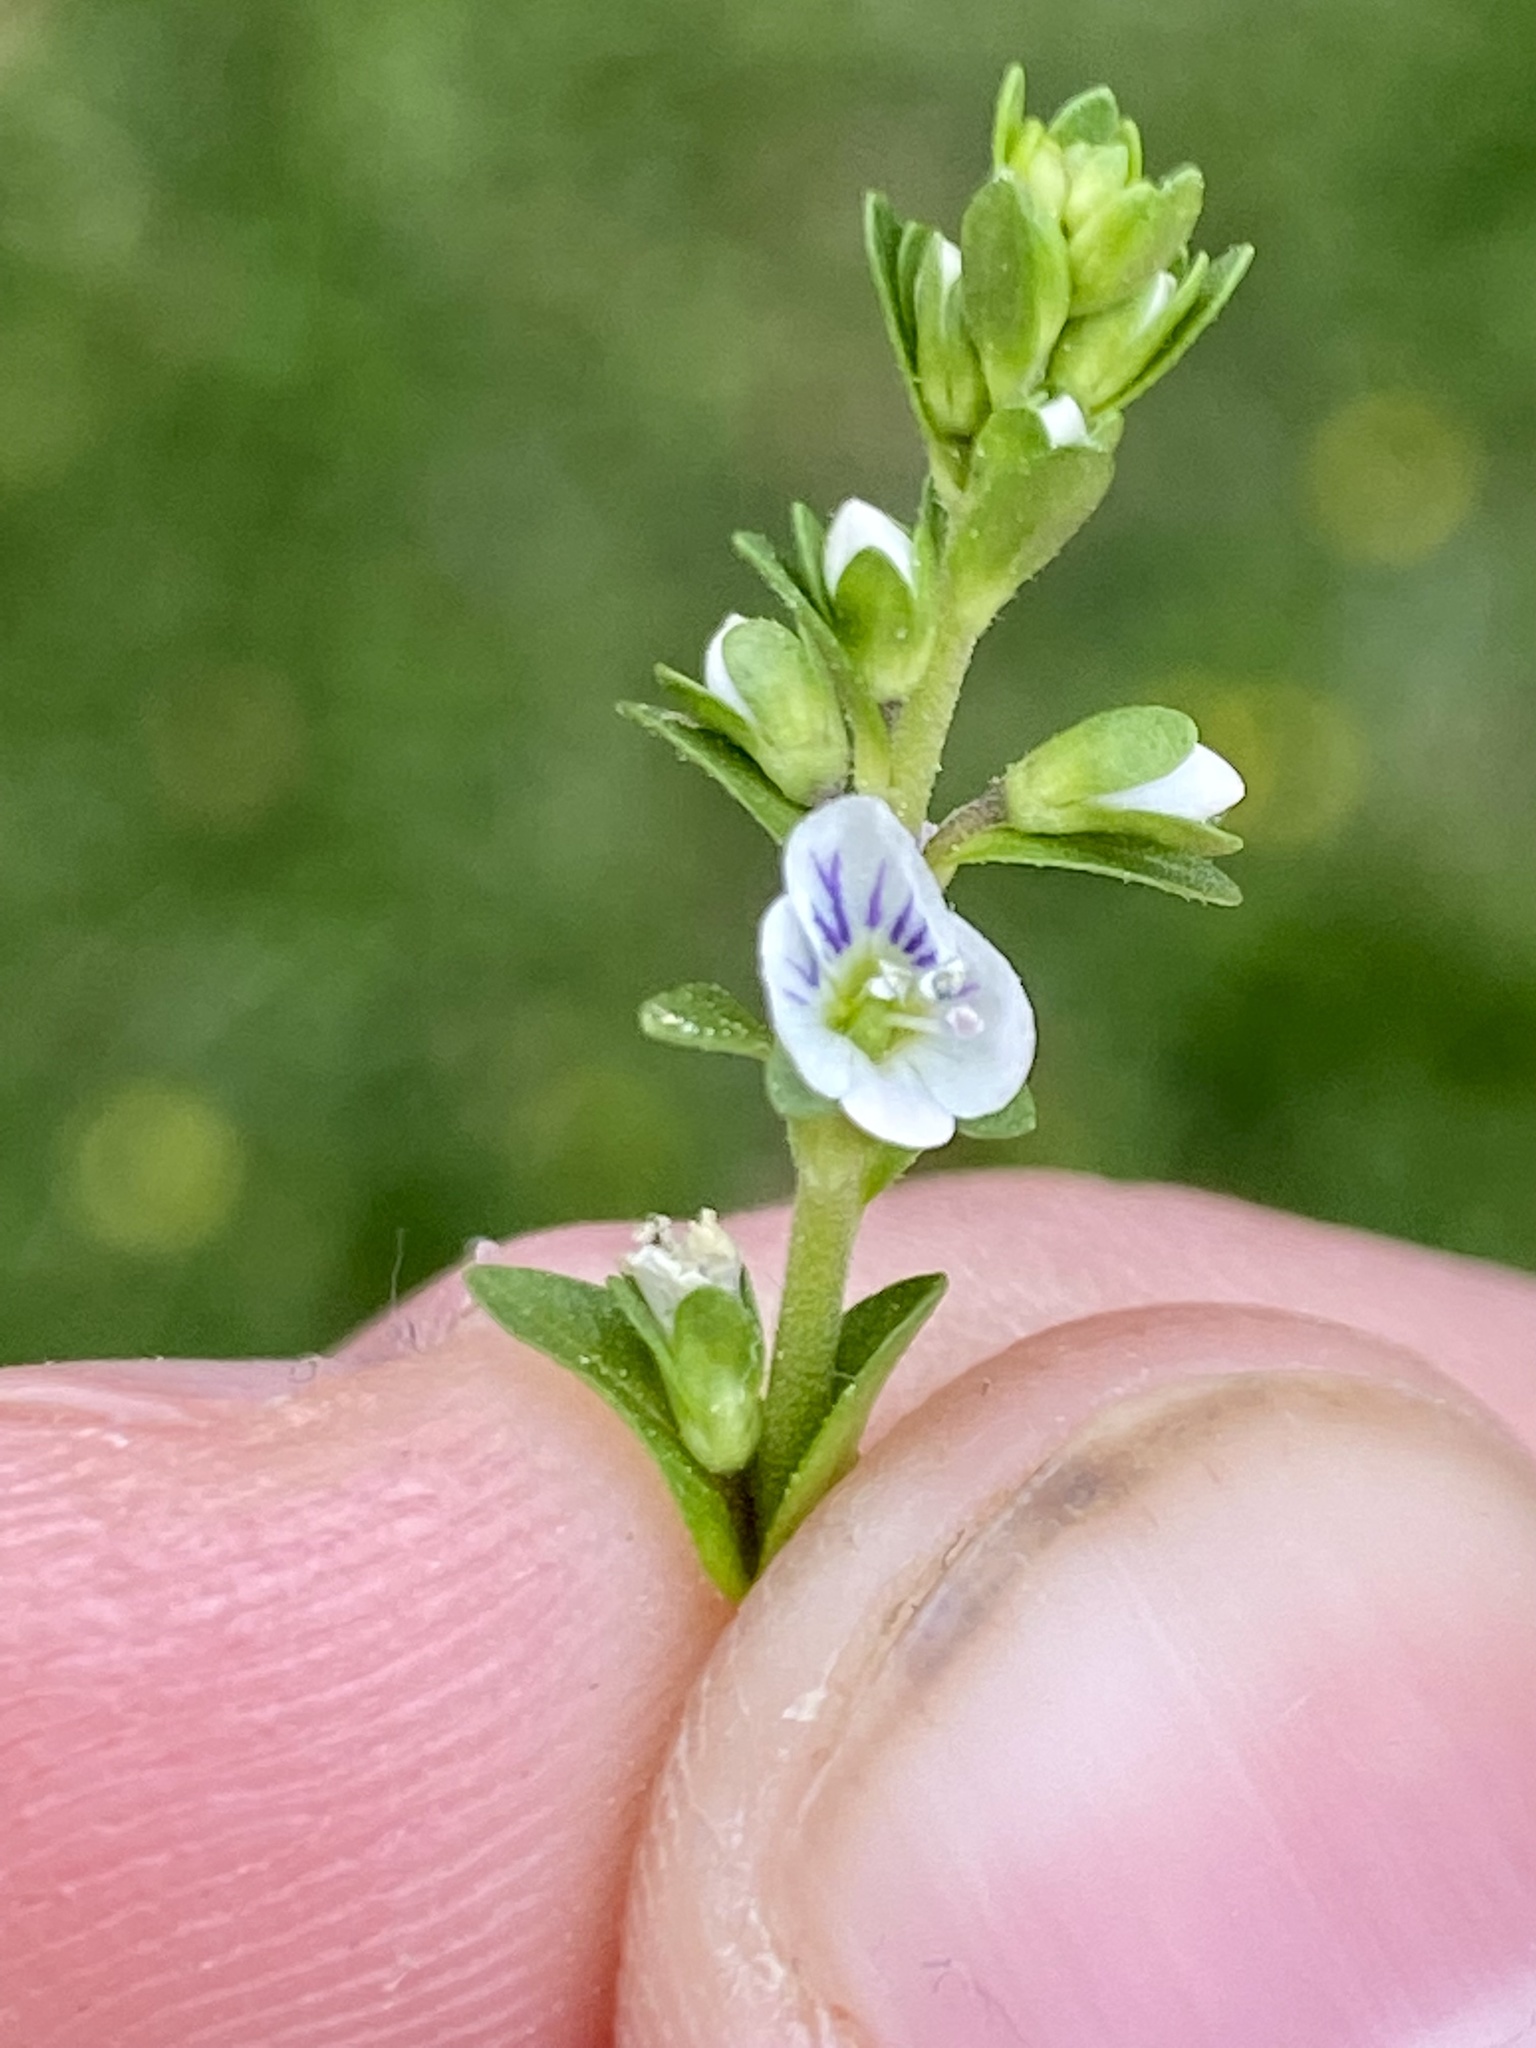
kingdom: Plantae
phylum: Tracheophyta
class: Magnoliopsida
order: Lamiales
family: Plantaginaceae
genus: Veronica
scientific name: Veronica serpyllifolia
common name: Thyme-leaved speedwell
